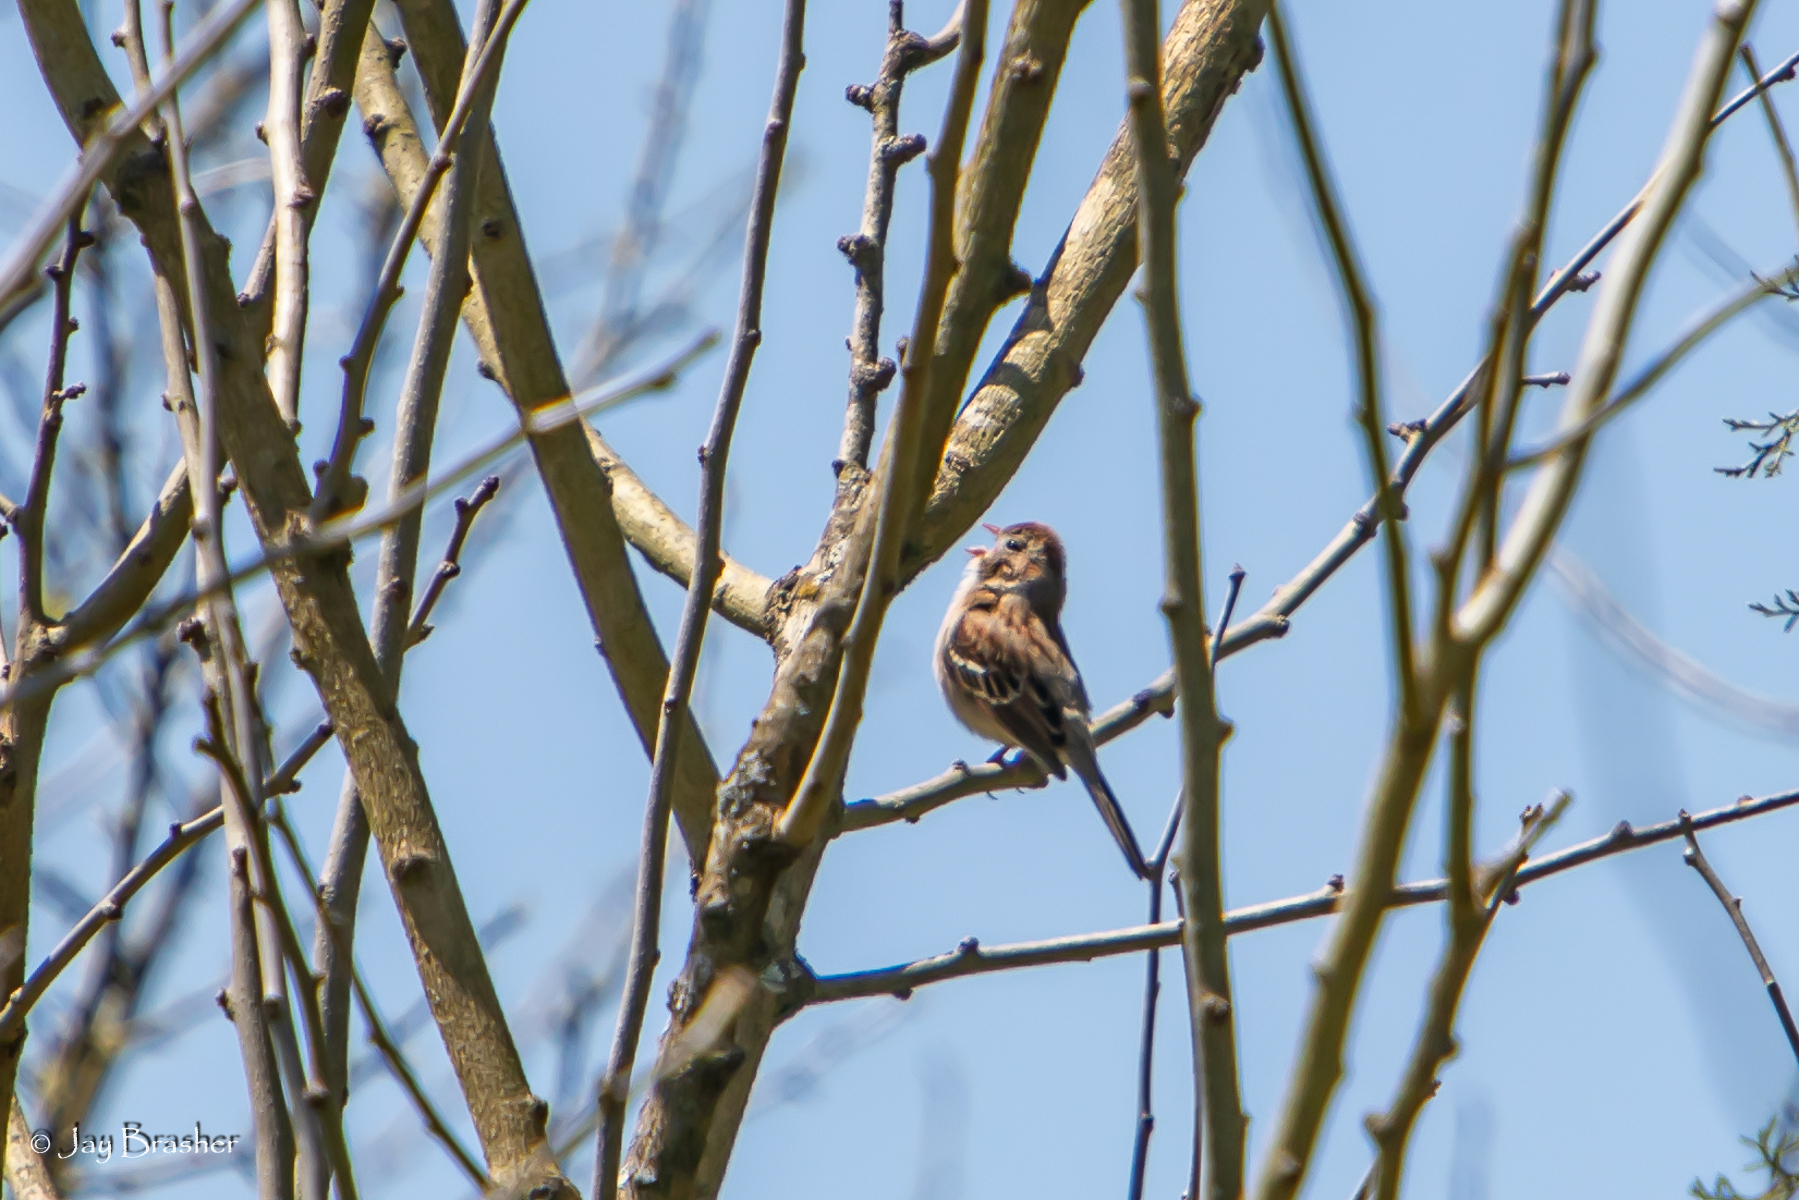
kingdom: Animalia
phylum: Chordata
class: Aves
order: Passeriformes
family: Passerellidae
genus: Spizella
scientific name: Spizella pusilla
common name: Field sparrow
